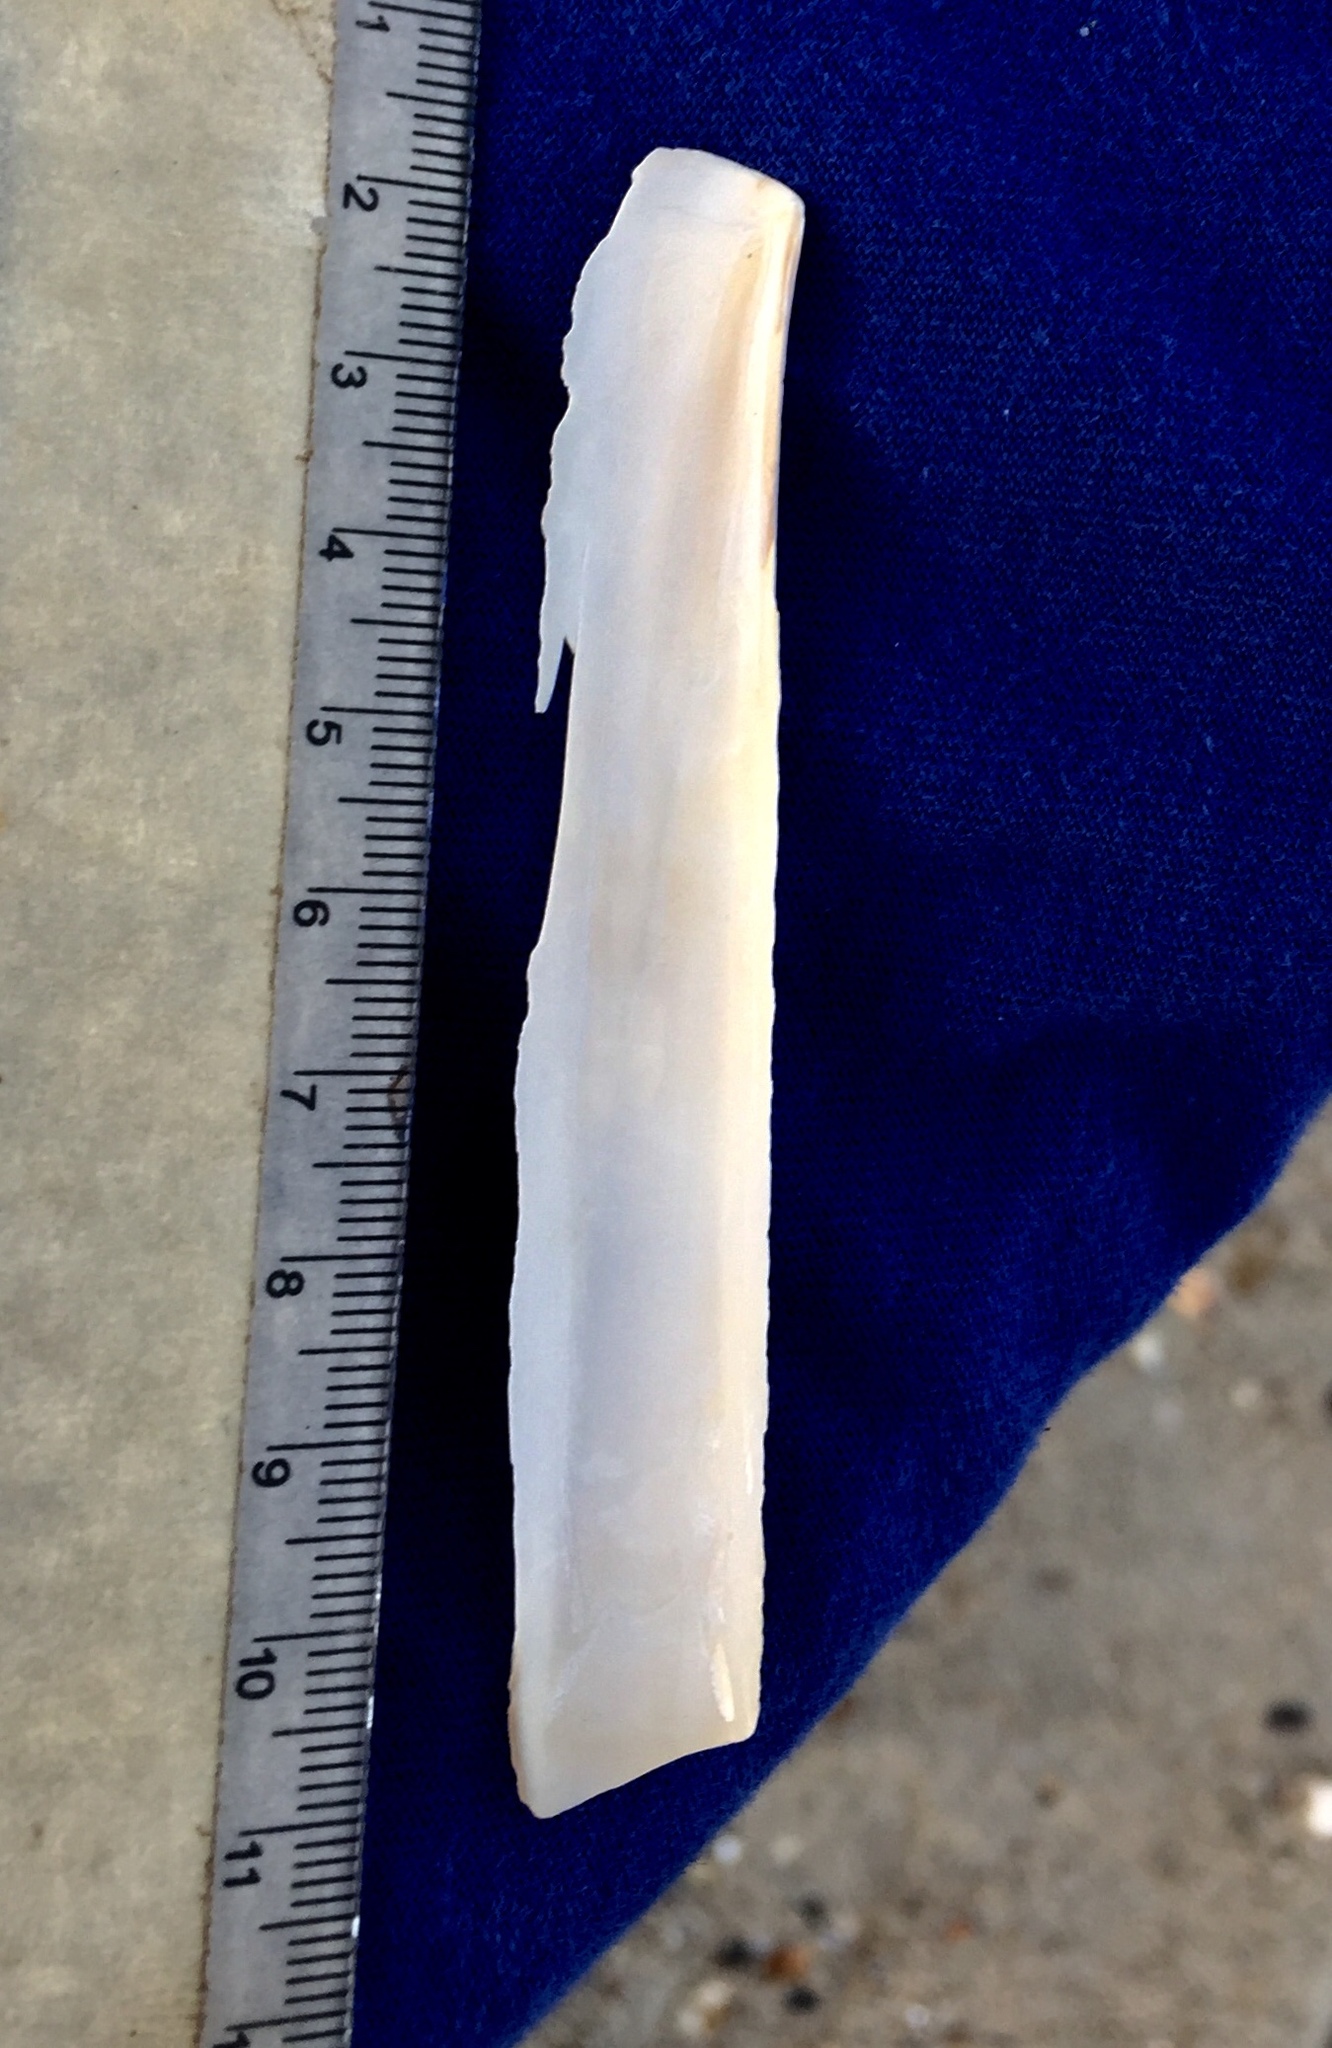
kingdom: Animalia
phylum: Mollusca
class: Bivalvia
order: Adapedonta
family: Pharidae
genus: Ensis
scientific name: Ensis leei
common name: American jack knife clam
